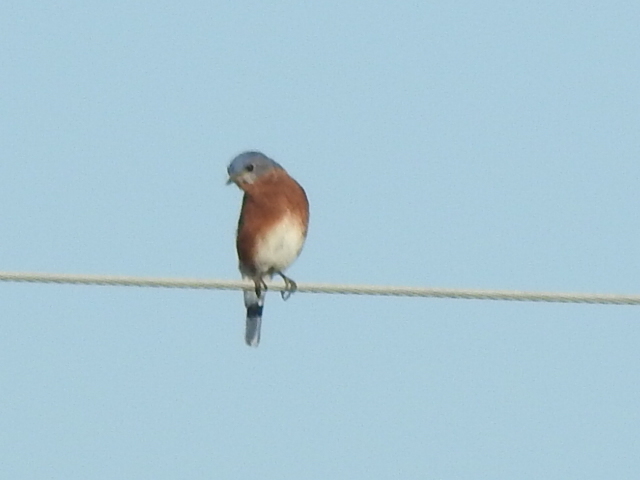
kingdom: Animalia
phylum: Chordata
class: Aves
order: Passeriformes
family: Turdidae
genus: Sialia
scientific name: Sialia sialis
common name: Eastern bluebird
